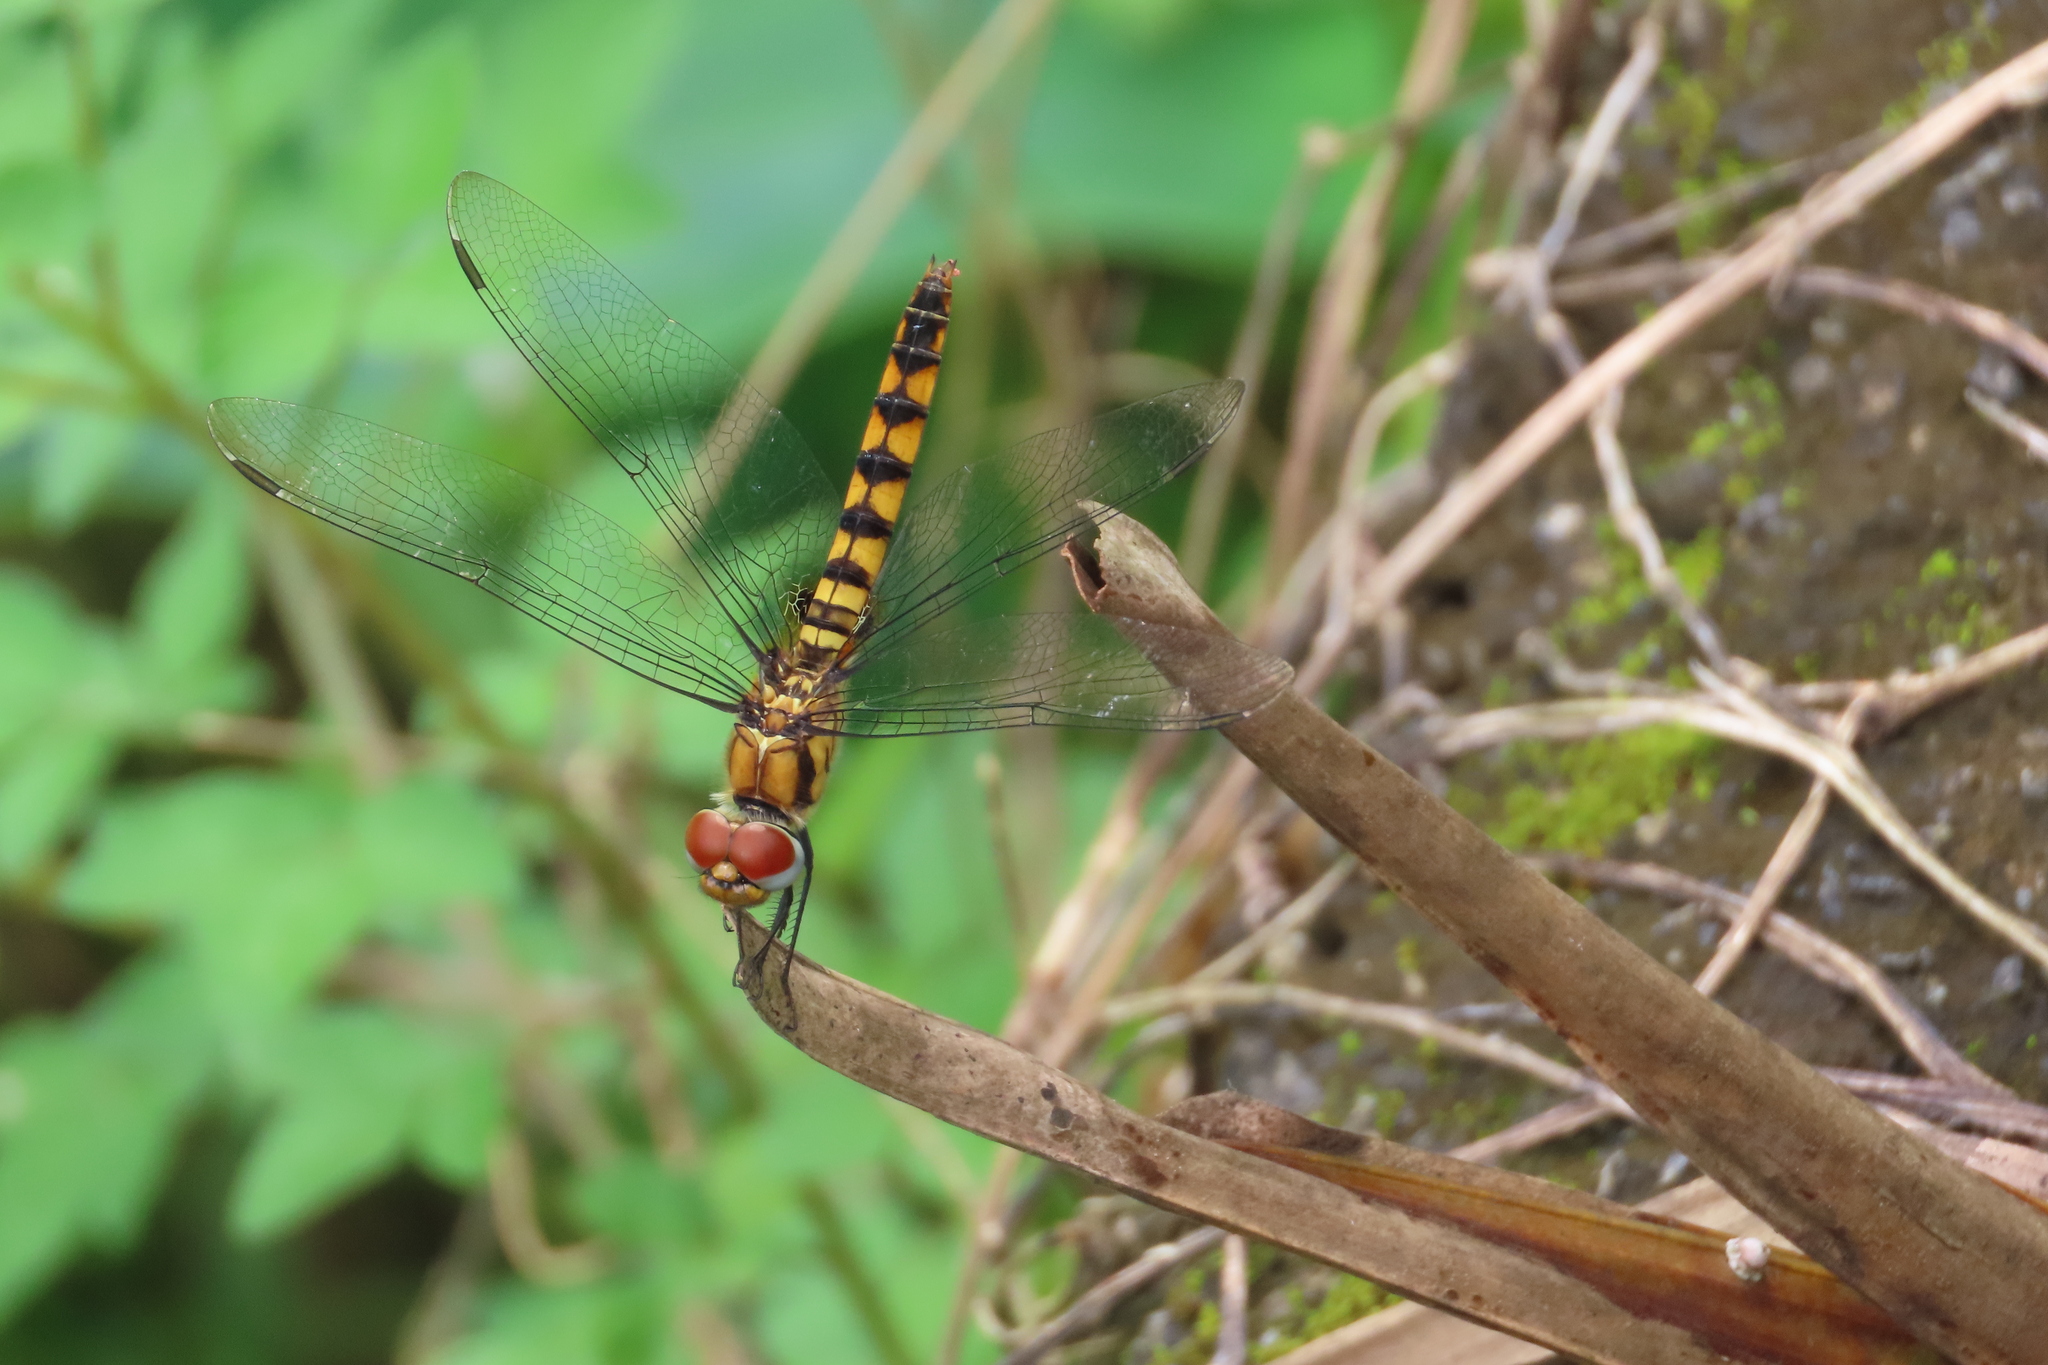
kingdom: Animalia
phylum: Arthropoda
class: Insecta
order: Odonata
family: Libellulidae
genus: Urothemis
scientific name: Urothemis signata
